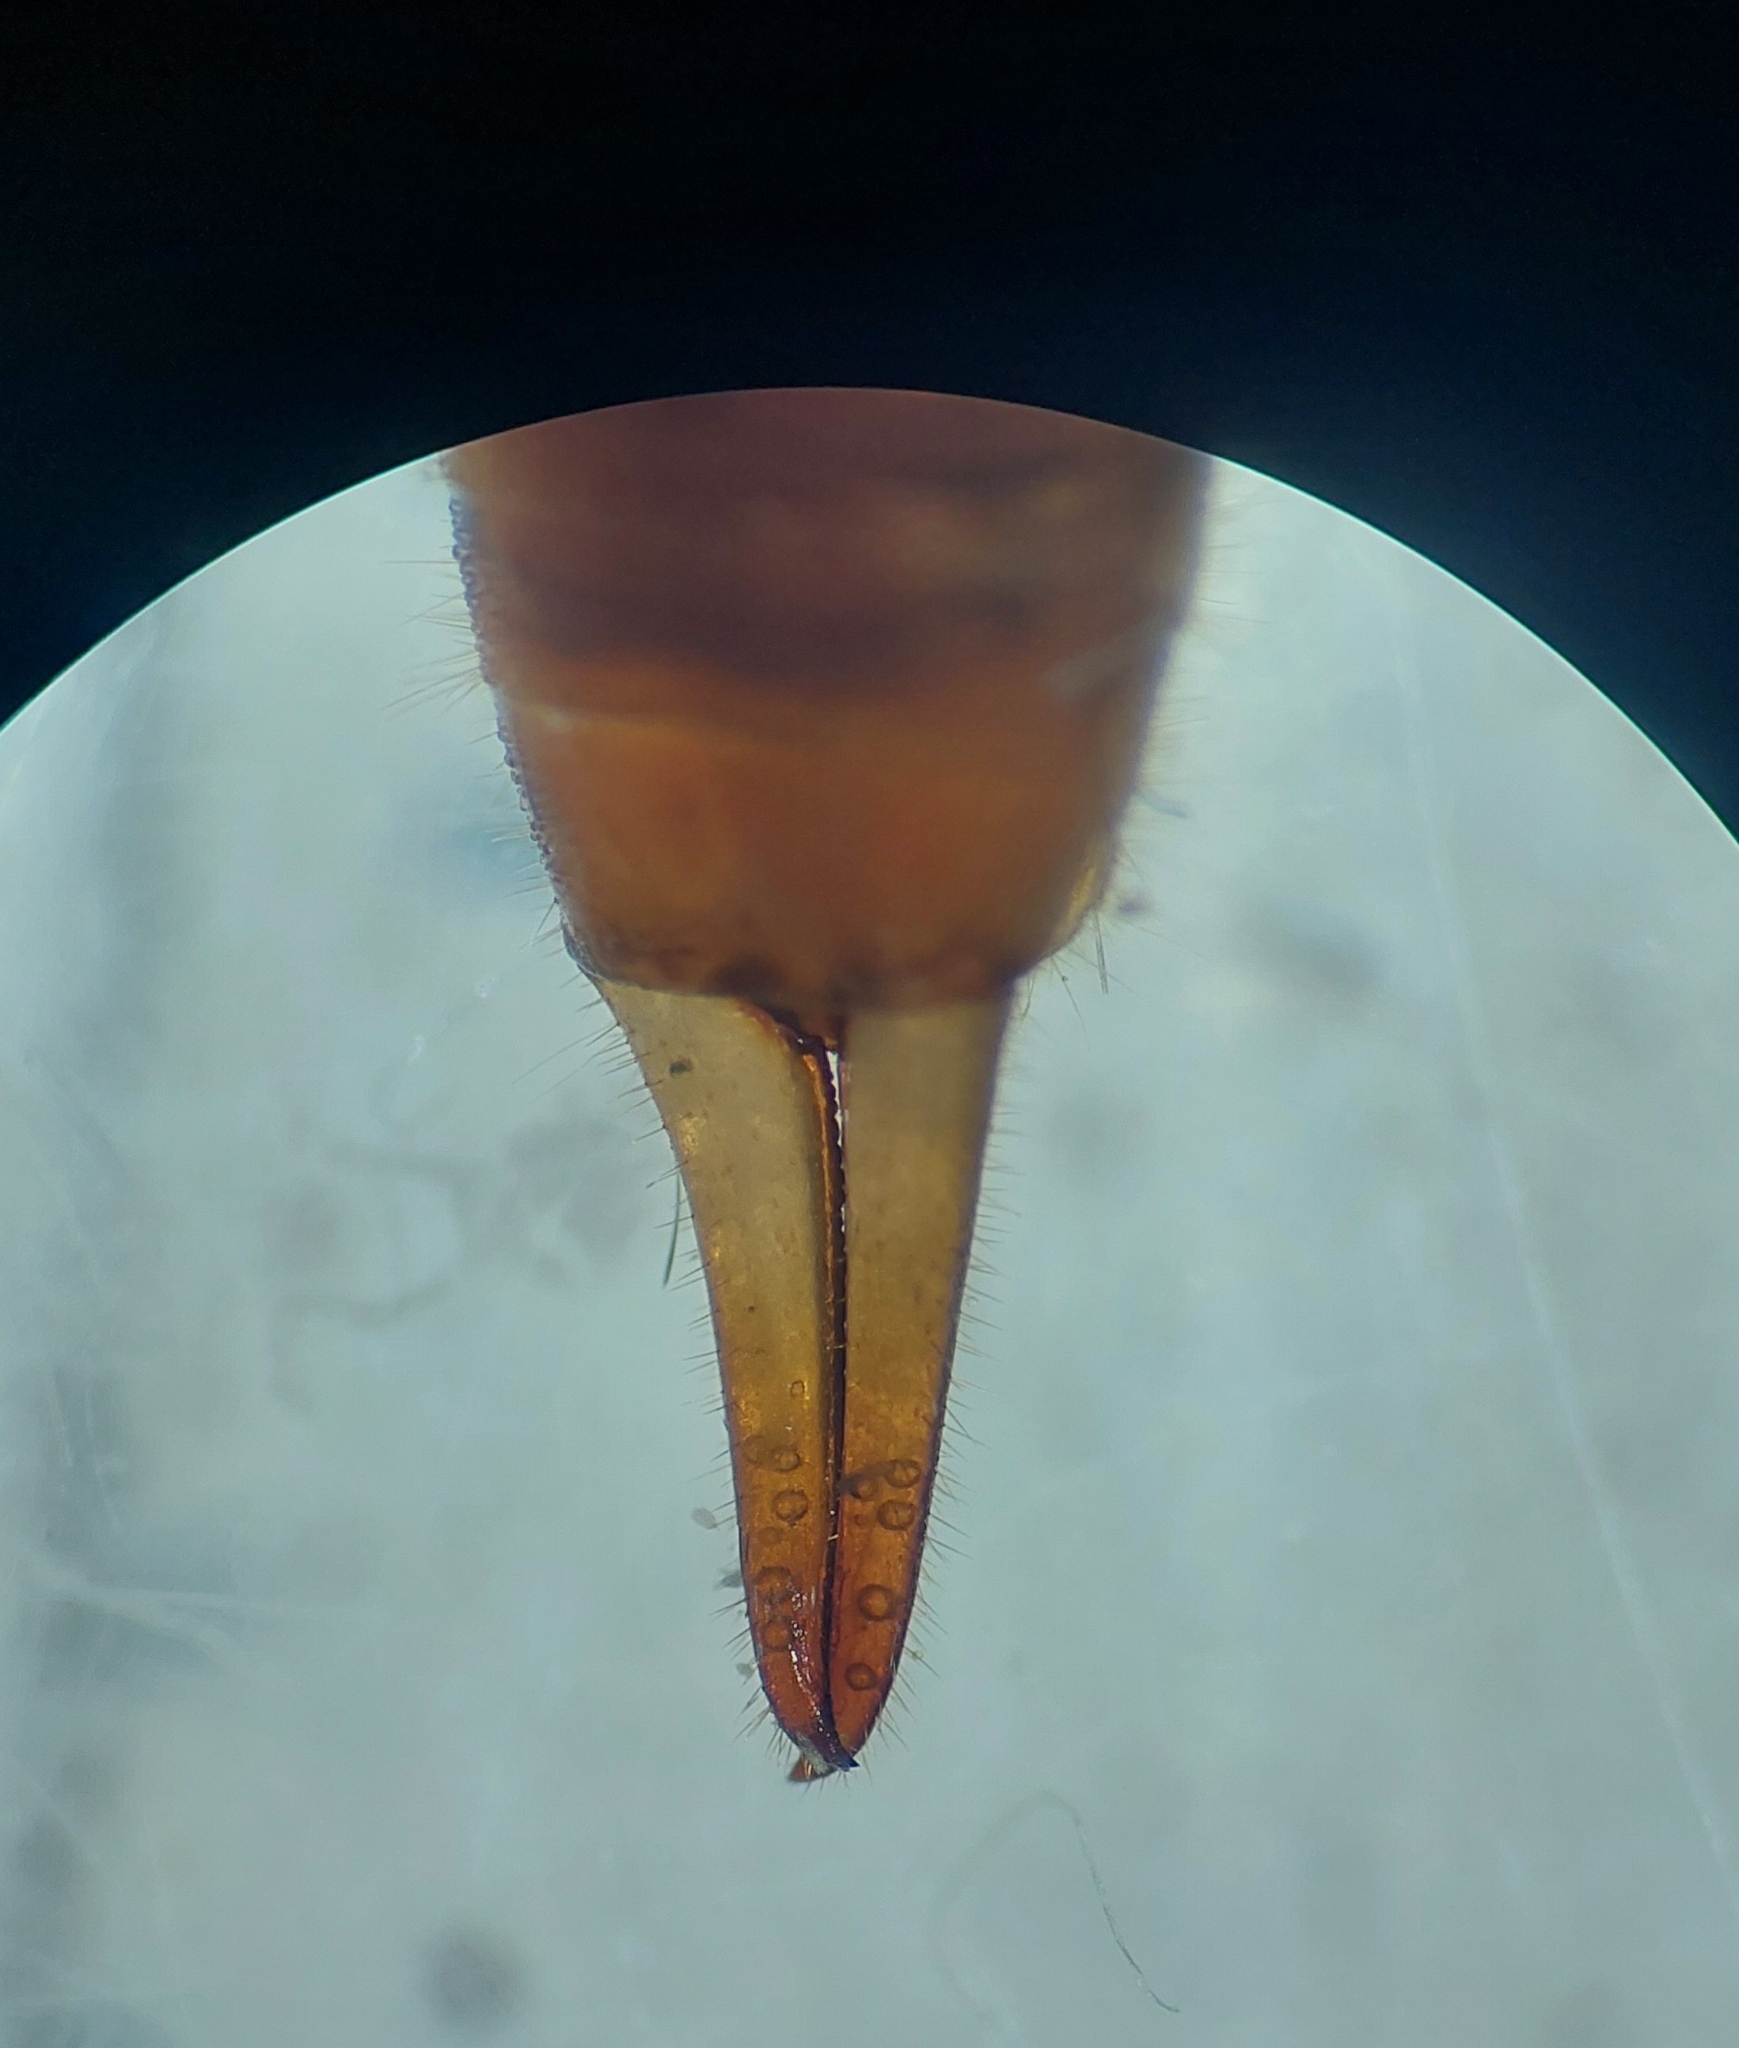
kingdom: Animalia
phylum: Arthropoda
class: Insecta
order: Dermaptera
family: Forficulidae
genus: Apterygida
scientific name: Apterygida albipennis
